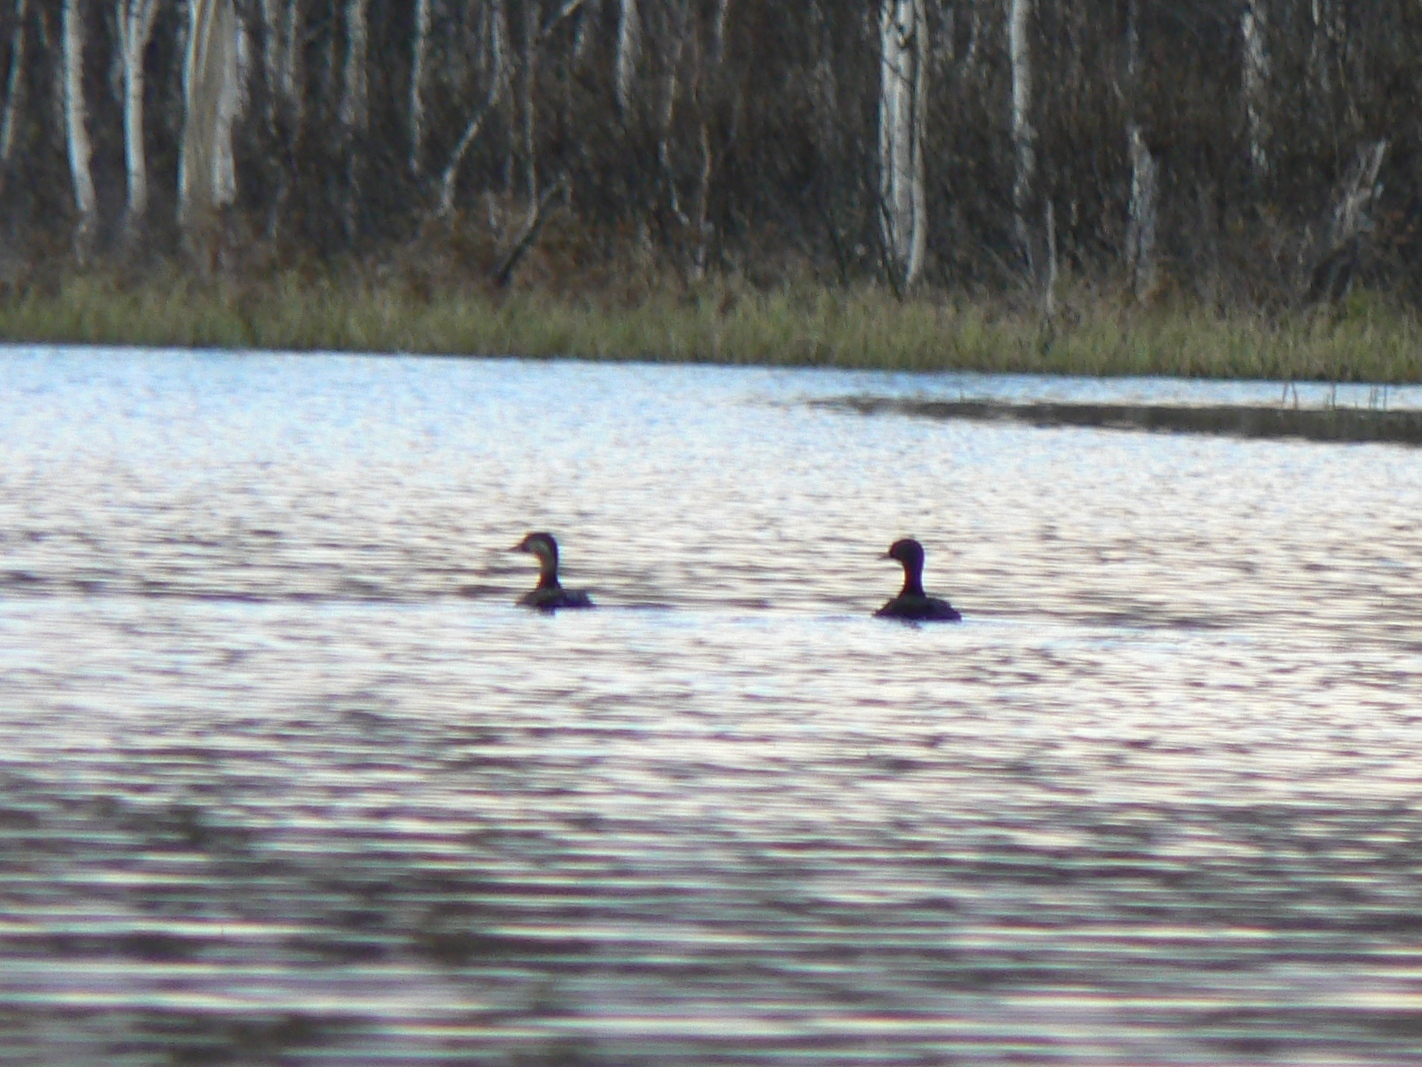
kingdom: Animalia
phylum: Chordata
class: Aves
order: Anseriformes
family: Anatidae
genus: Melanitta
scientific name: Melanitta nigra
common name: Common scoter
